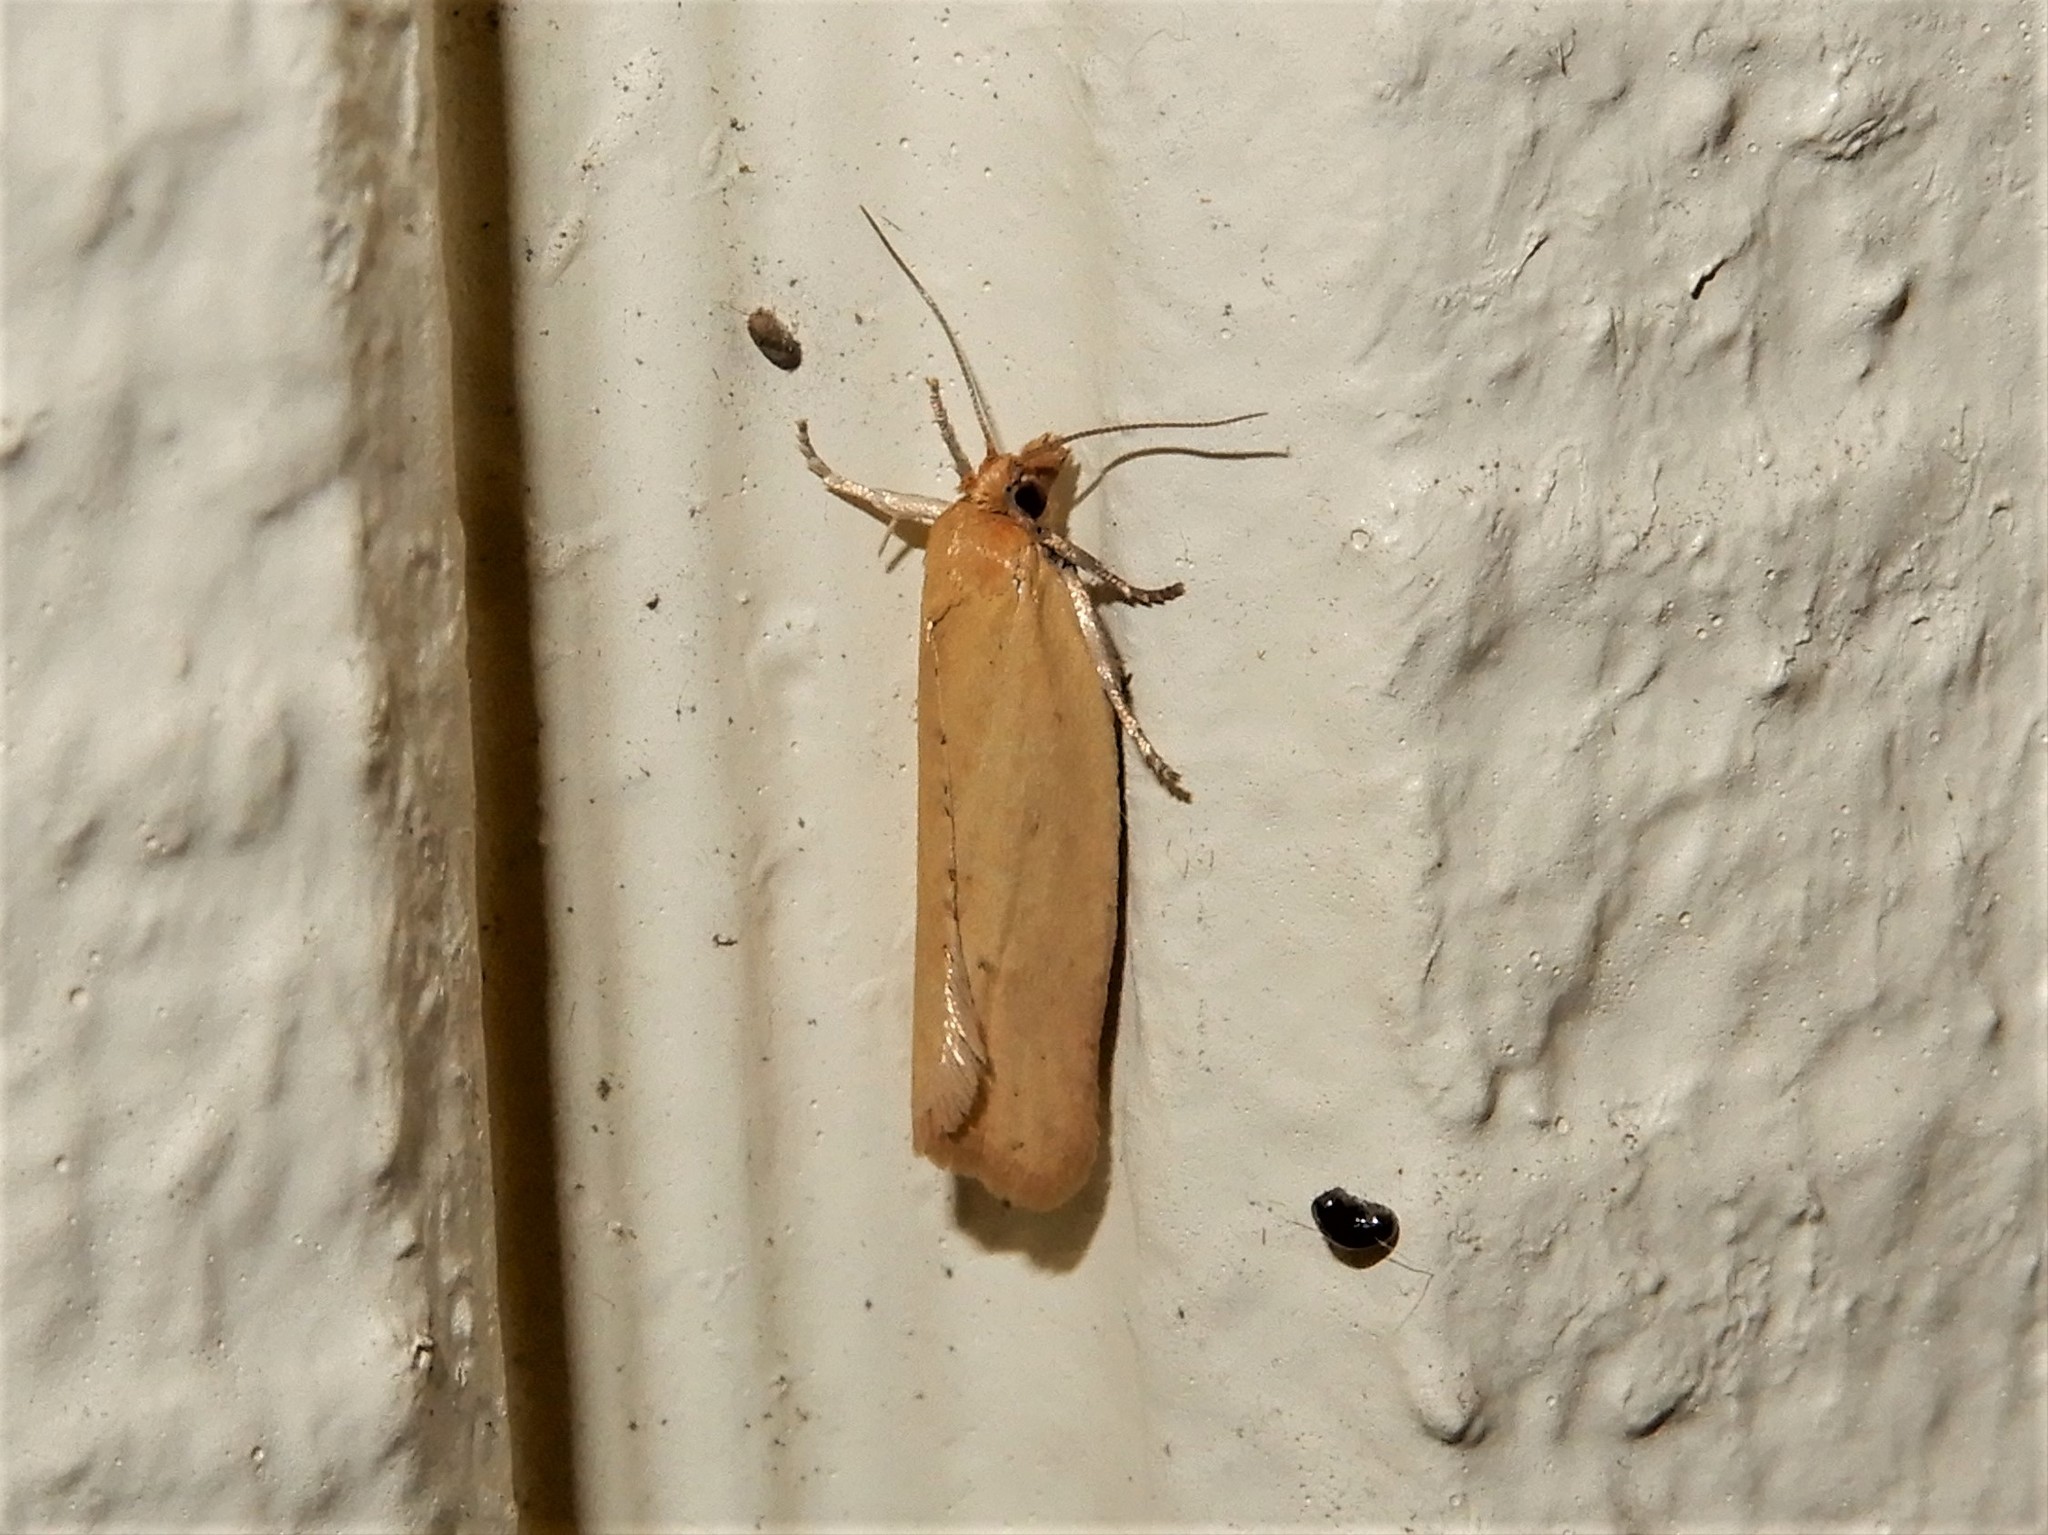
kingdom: Animalia
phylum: Arthropoda
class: Insecta
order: Lepidoptera
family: Tortricidae
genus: Clepsis
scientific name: Clepsis
